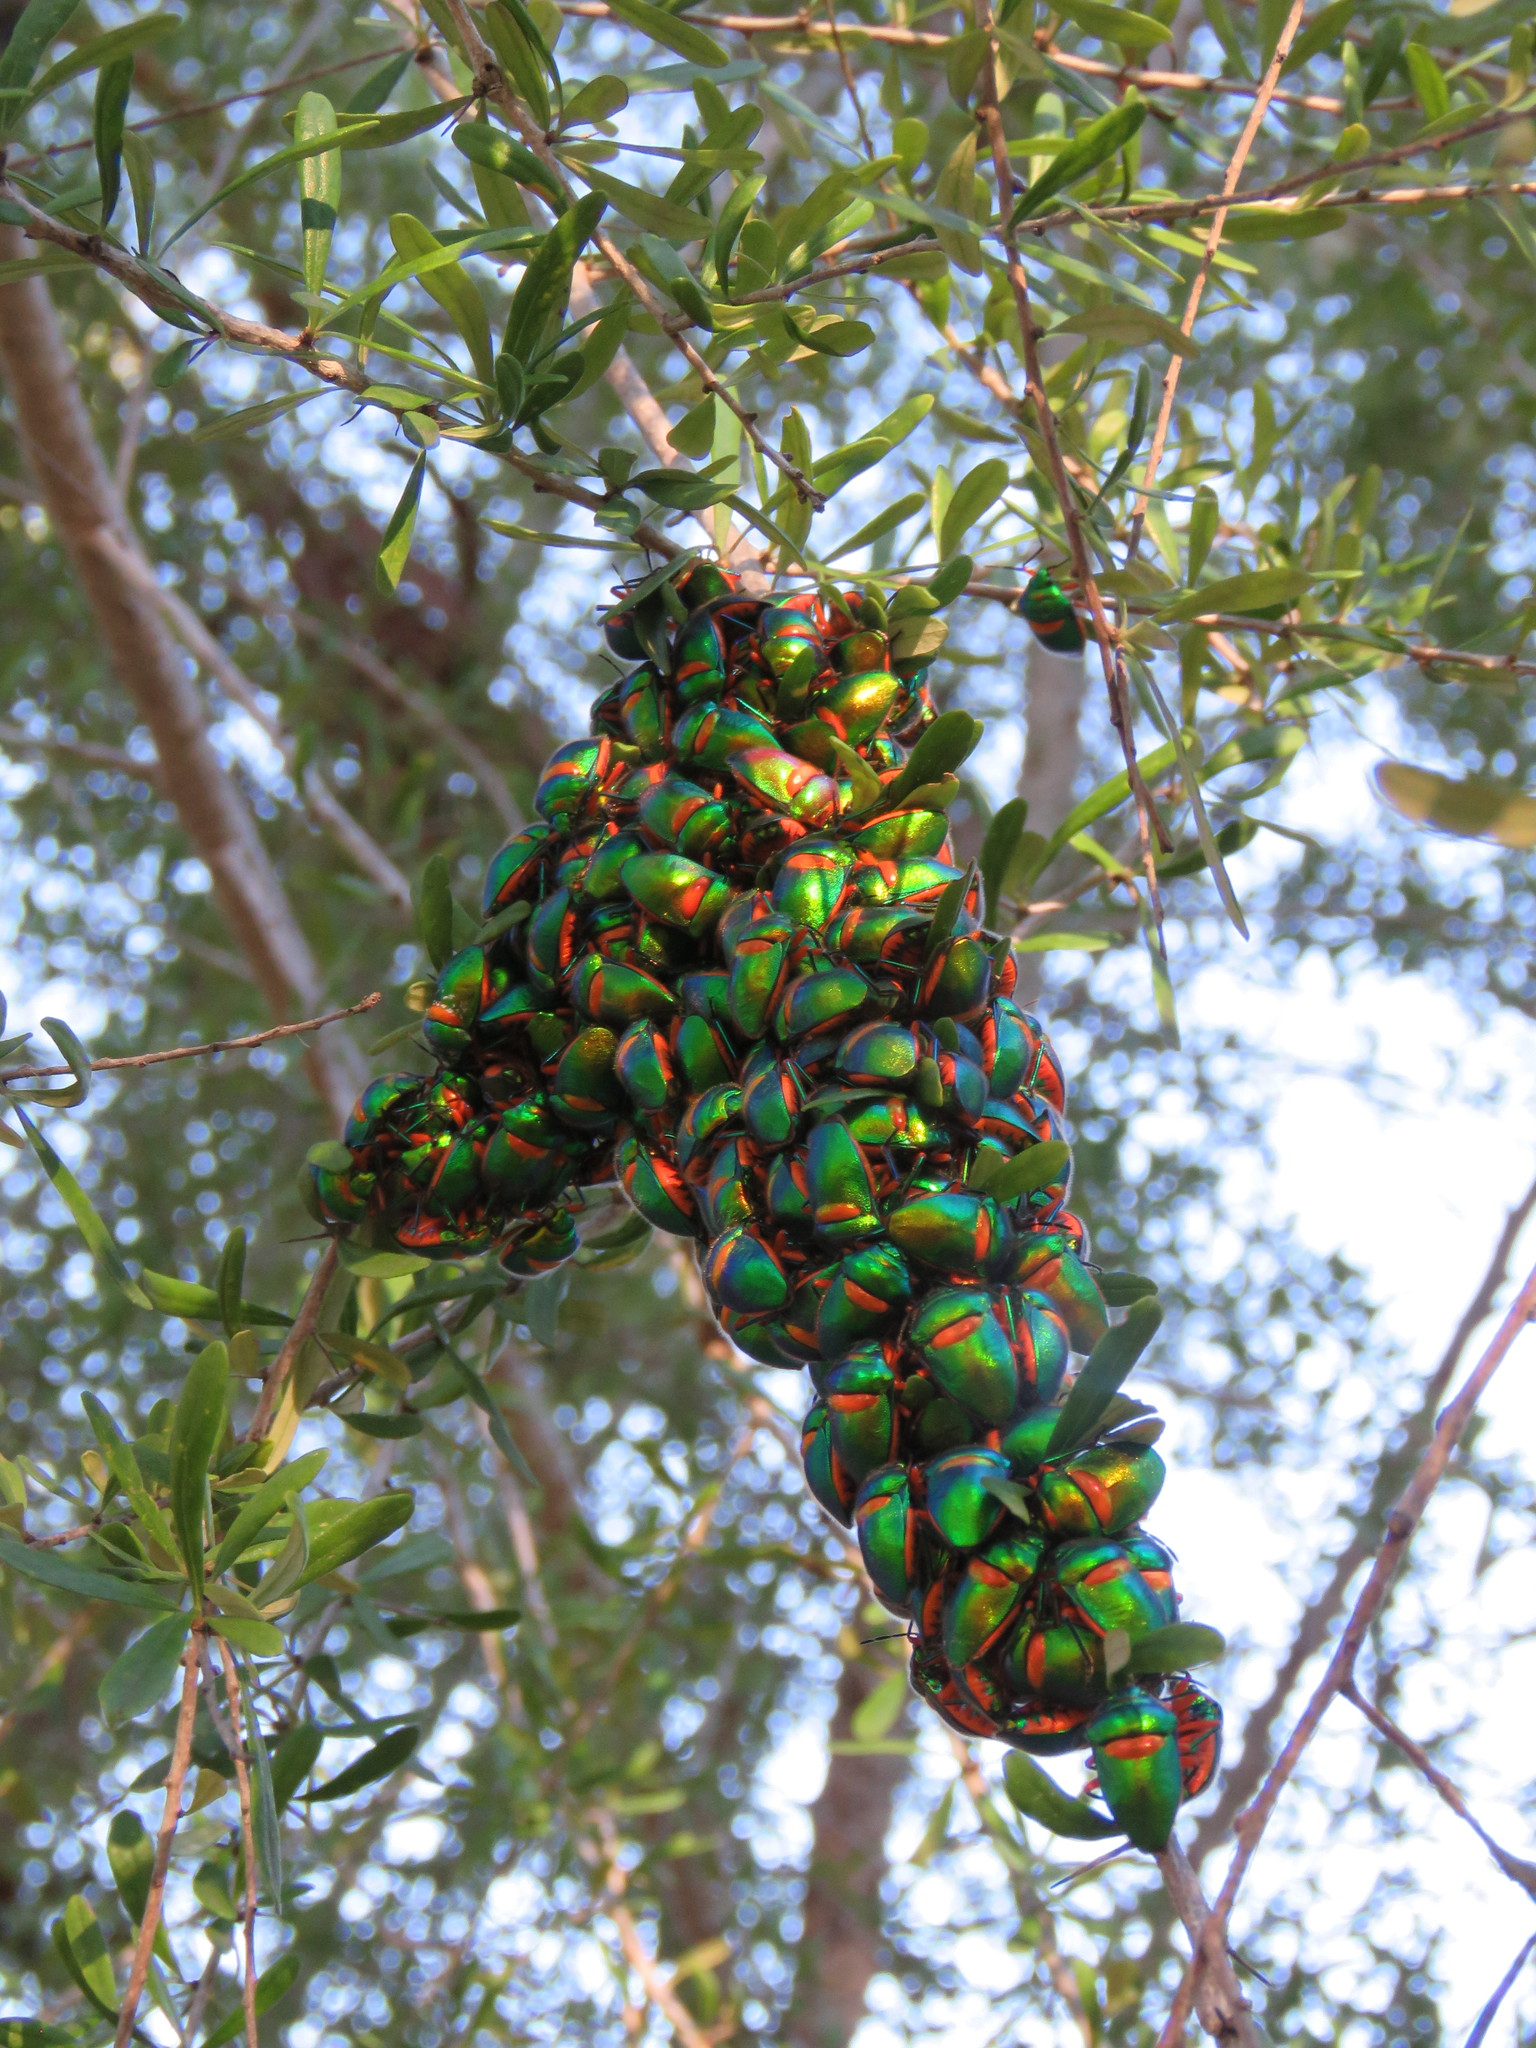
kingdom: Animalia
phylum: Arthropoda
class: Insecta
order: Hemiptera
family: Scutelleridae
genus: Lampromicra
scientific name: Lampromicra senator
